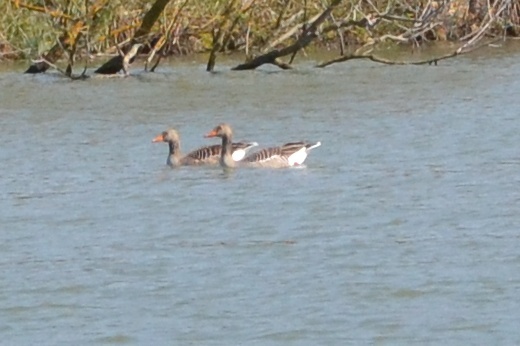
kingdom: Animalia
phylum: Chordata
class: Aves
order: Anseriformes
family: Anatidae
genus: Anser
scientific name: Anser anser
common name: Greylag goose
